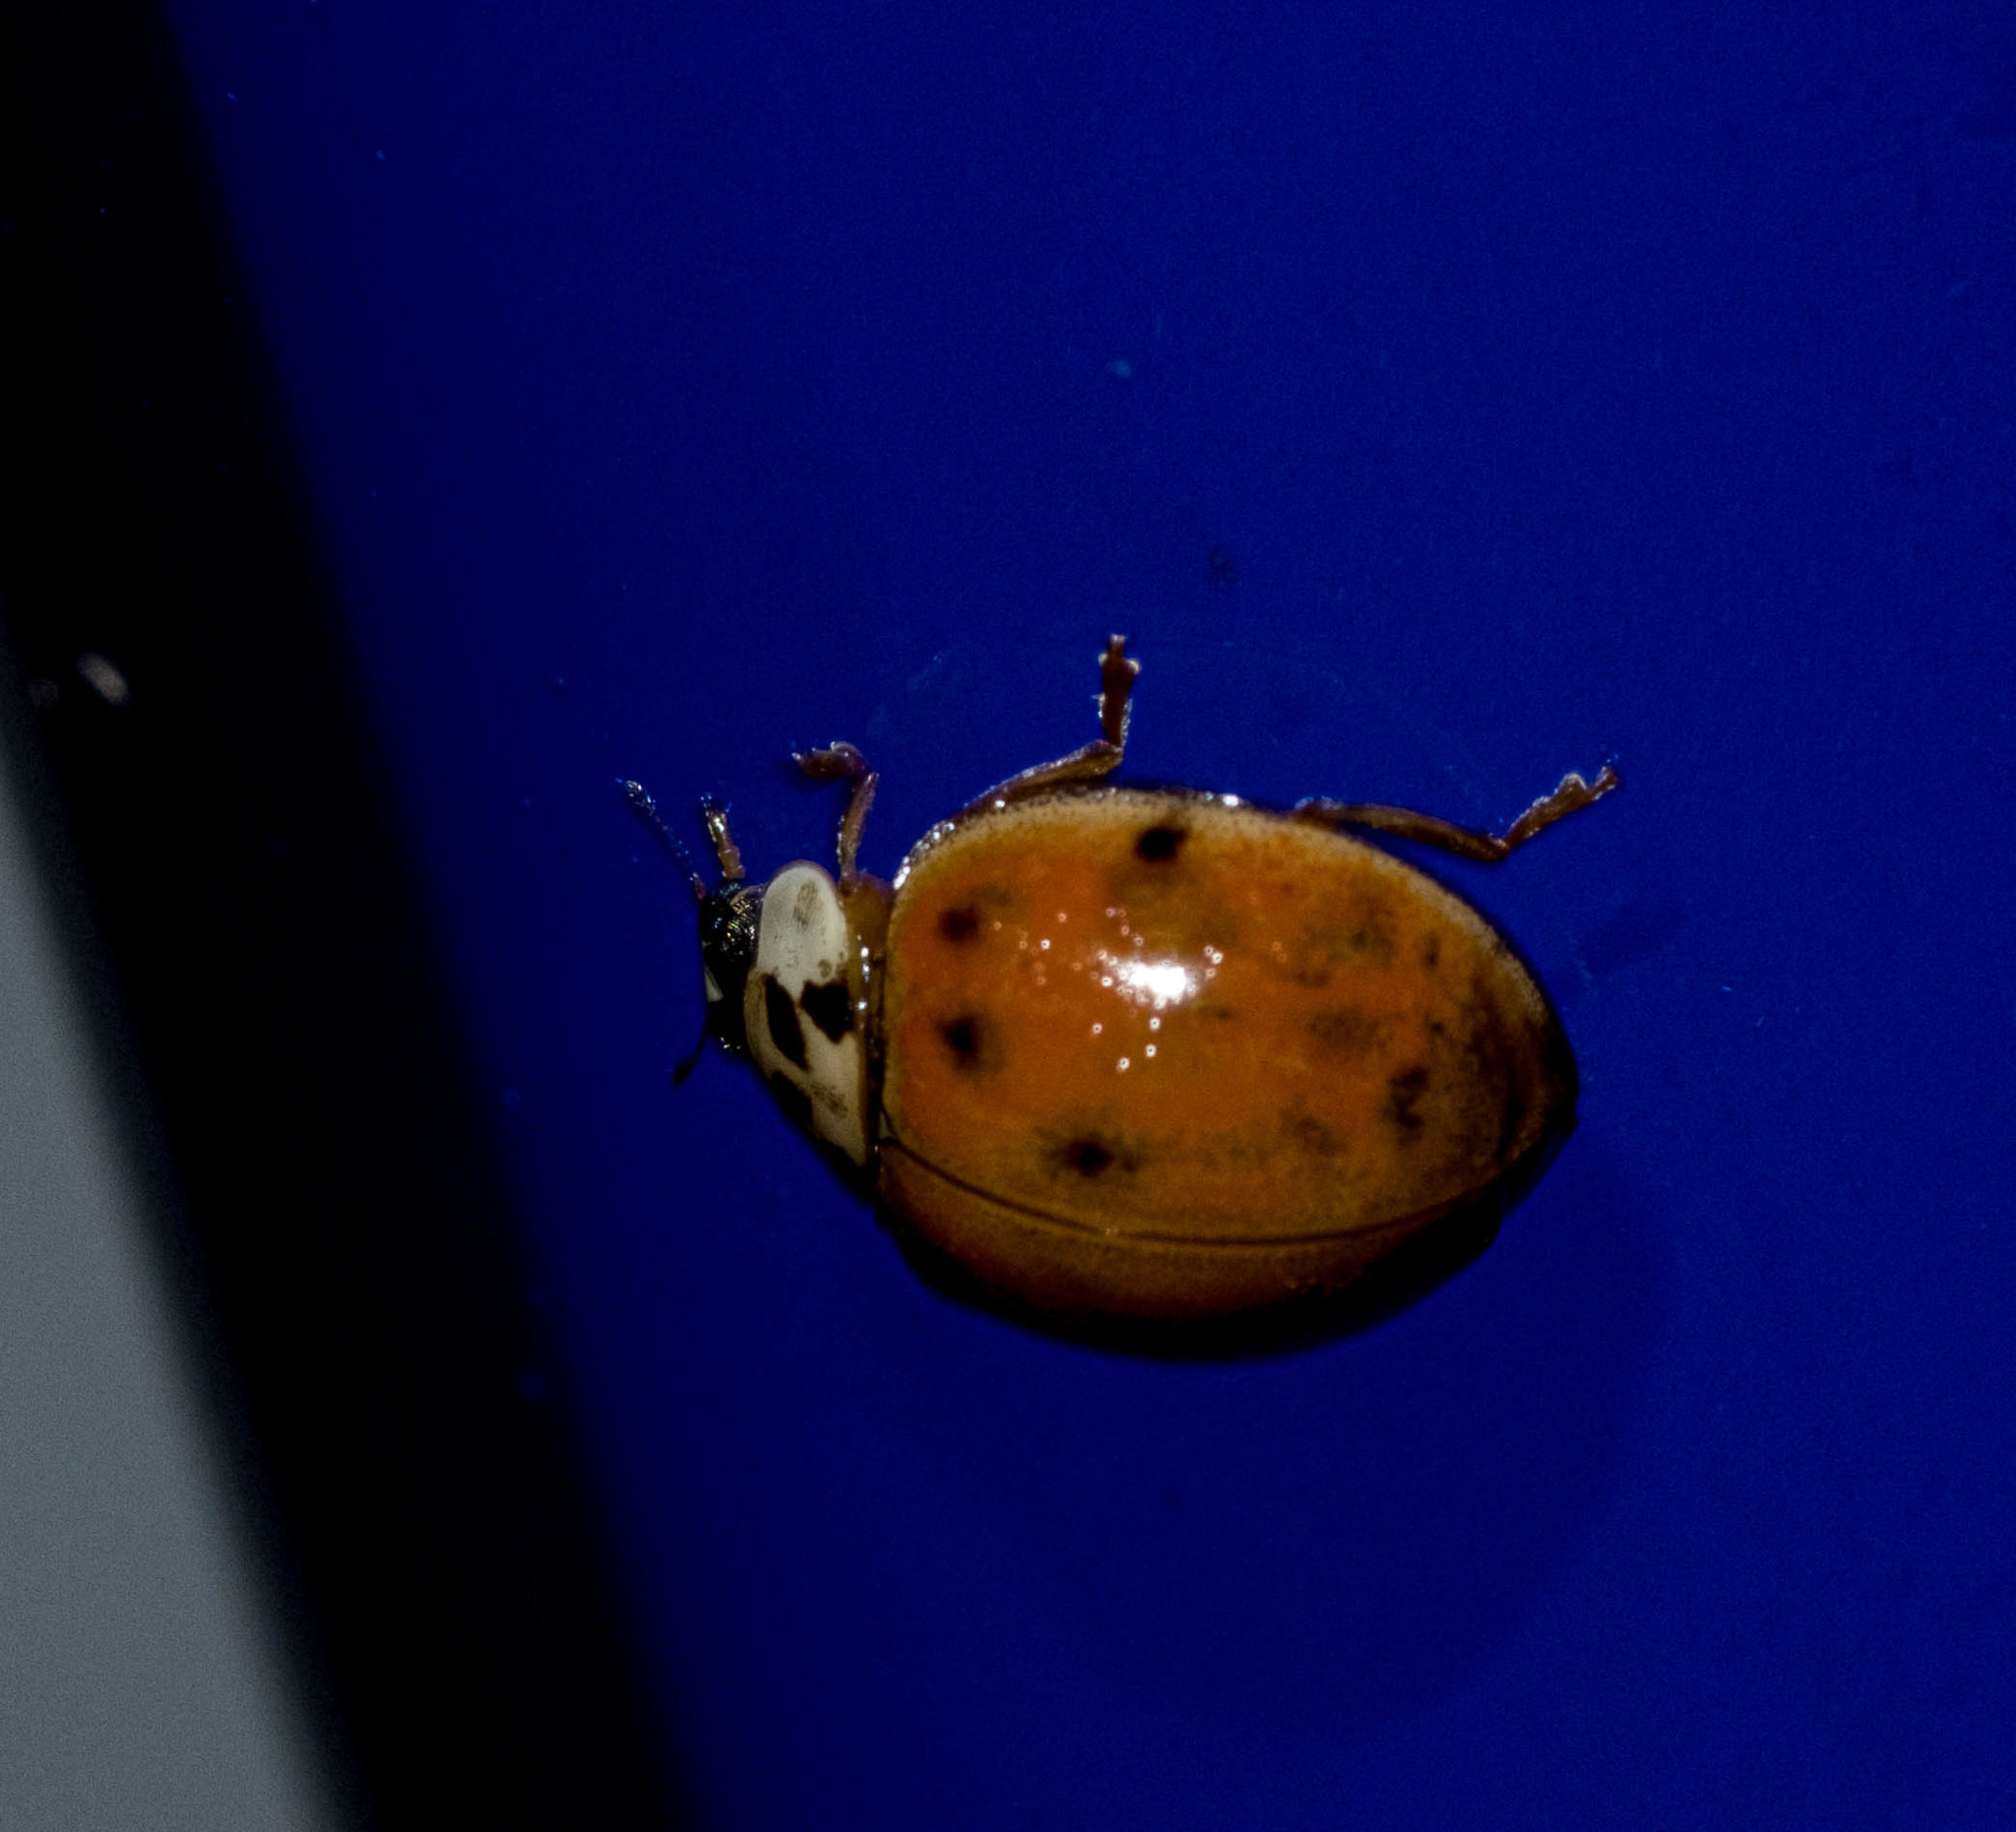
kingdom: Animalia
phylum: Arthropoda
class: Insecta
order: Coleoptera
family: Coccinellidae
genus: Harmonia
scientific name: Harmonia axyridis
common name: Harlequin ladybird
